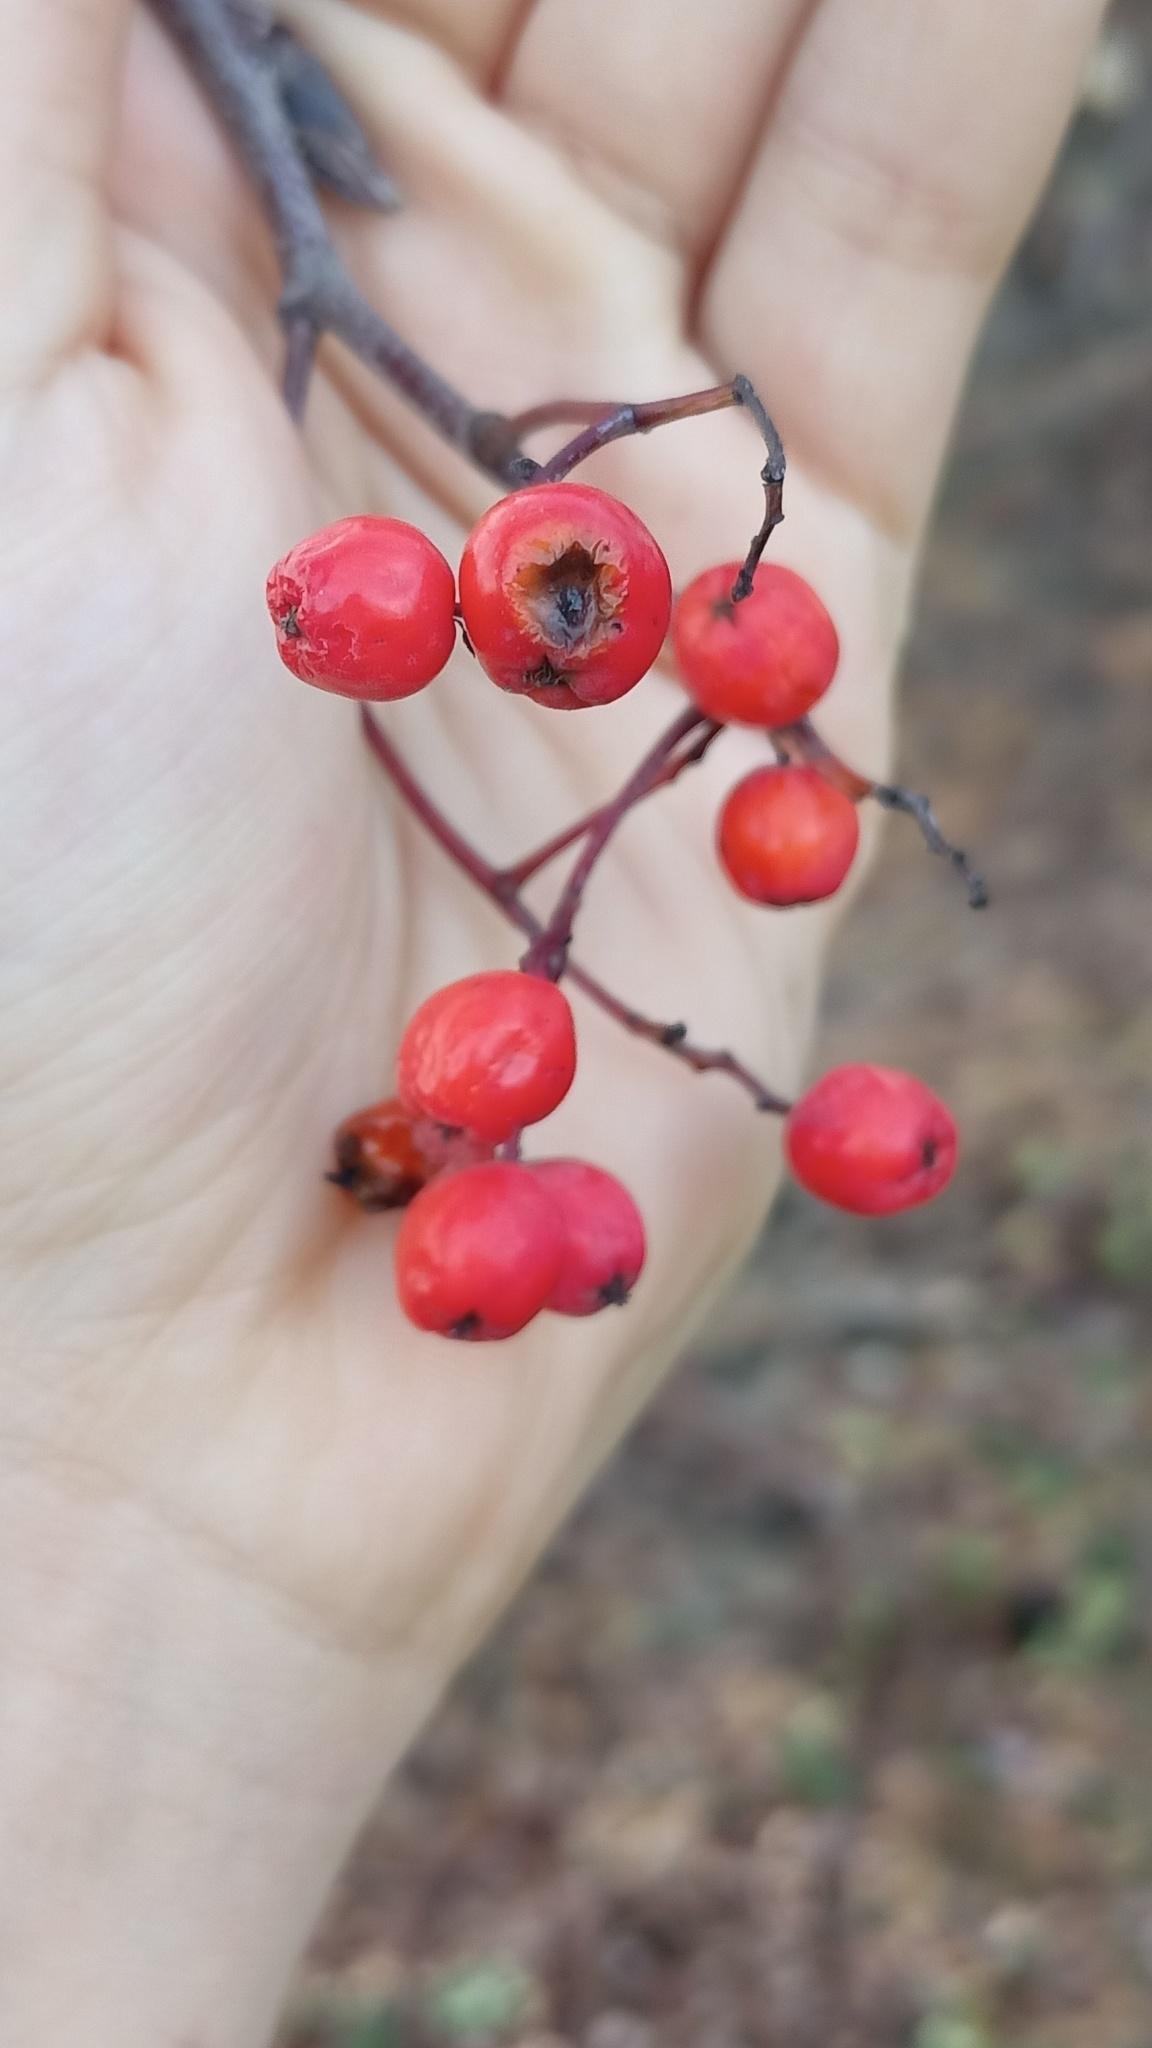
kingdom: Plantae
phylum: Tracheophyta
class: Magnoliopsida
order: Rosales
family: Rosaceae
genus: Sorbus
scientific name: Sorbus aucuparia
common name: Rowan
